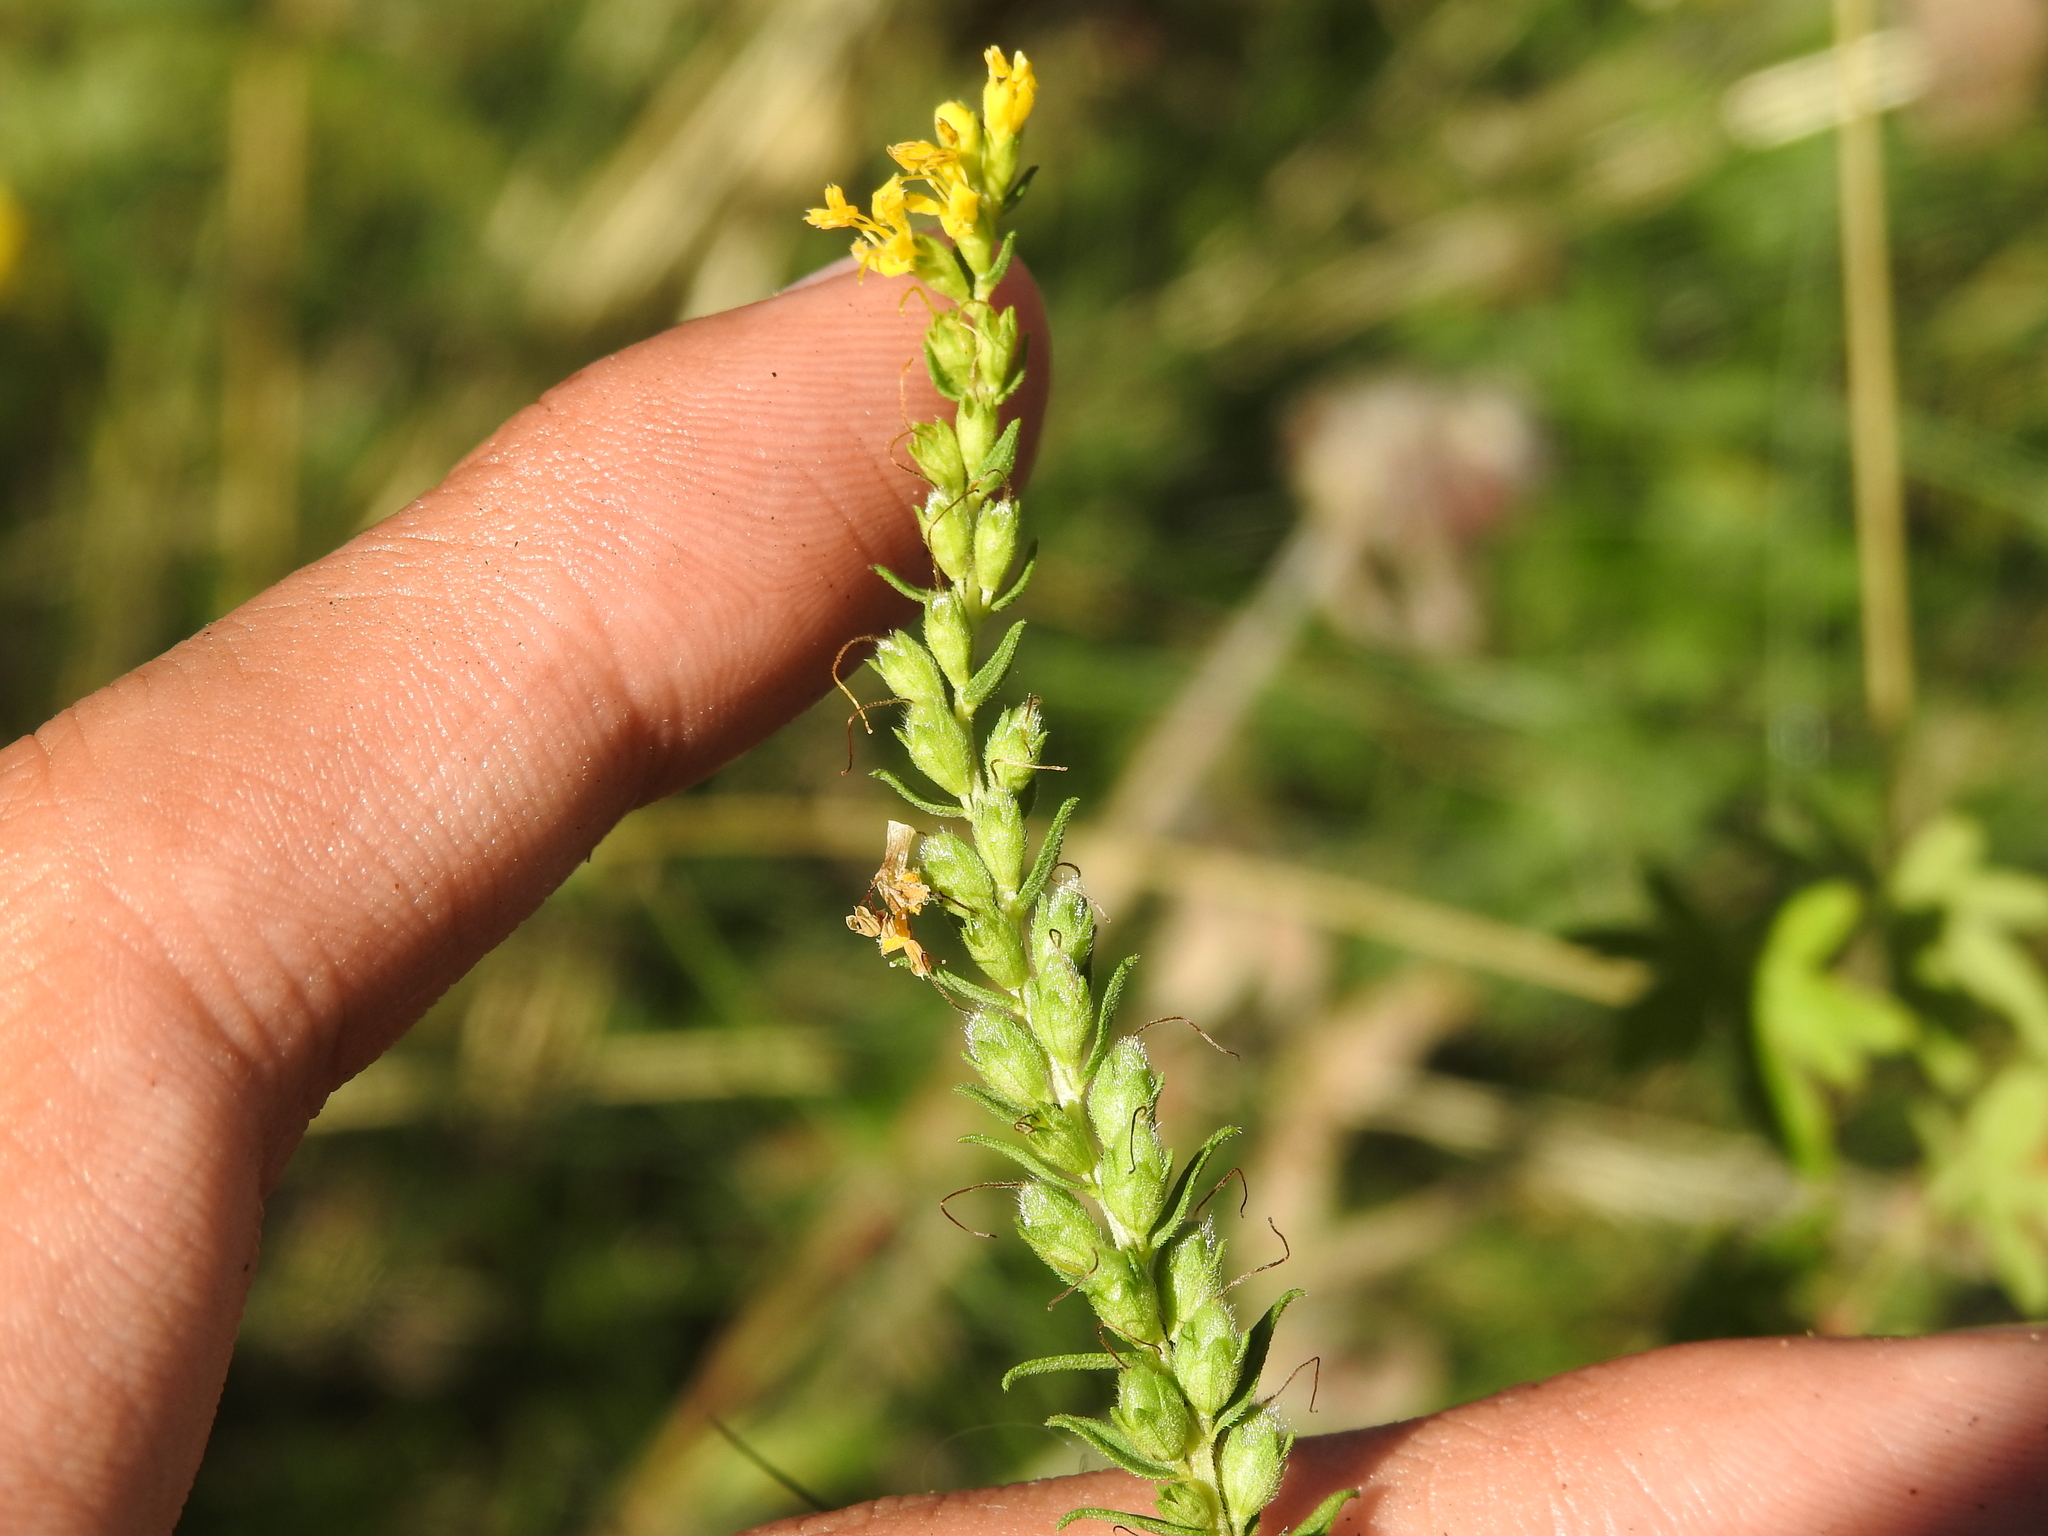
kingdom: Plantae
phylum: Tracheophyta
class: Magnoliopsida
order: Lamiales
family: Orobanchaceae
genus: Odontites
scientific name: Odontites luteus
